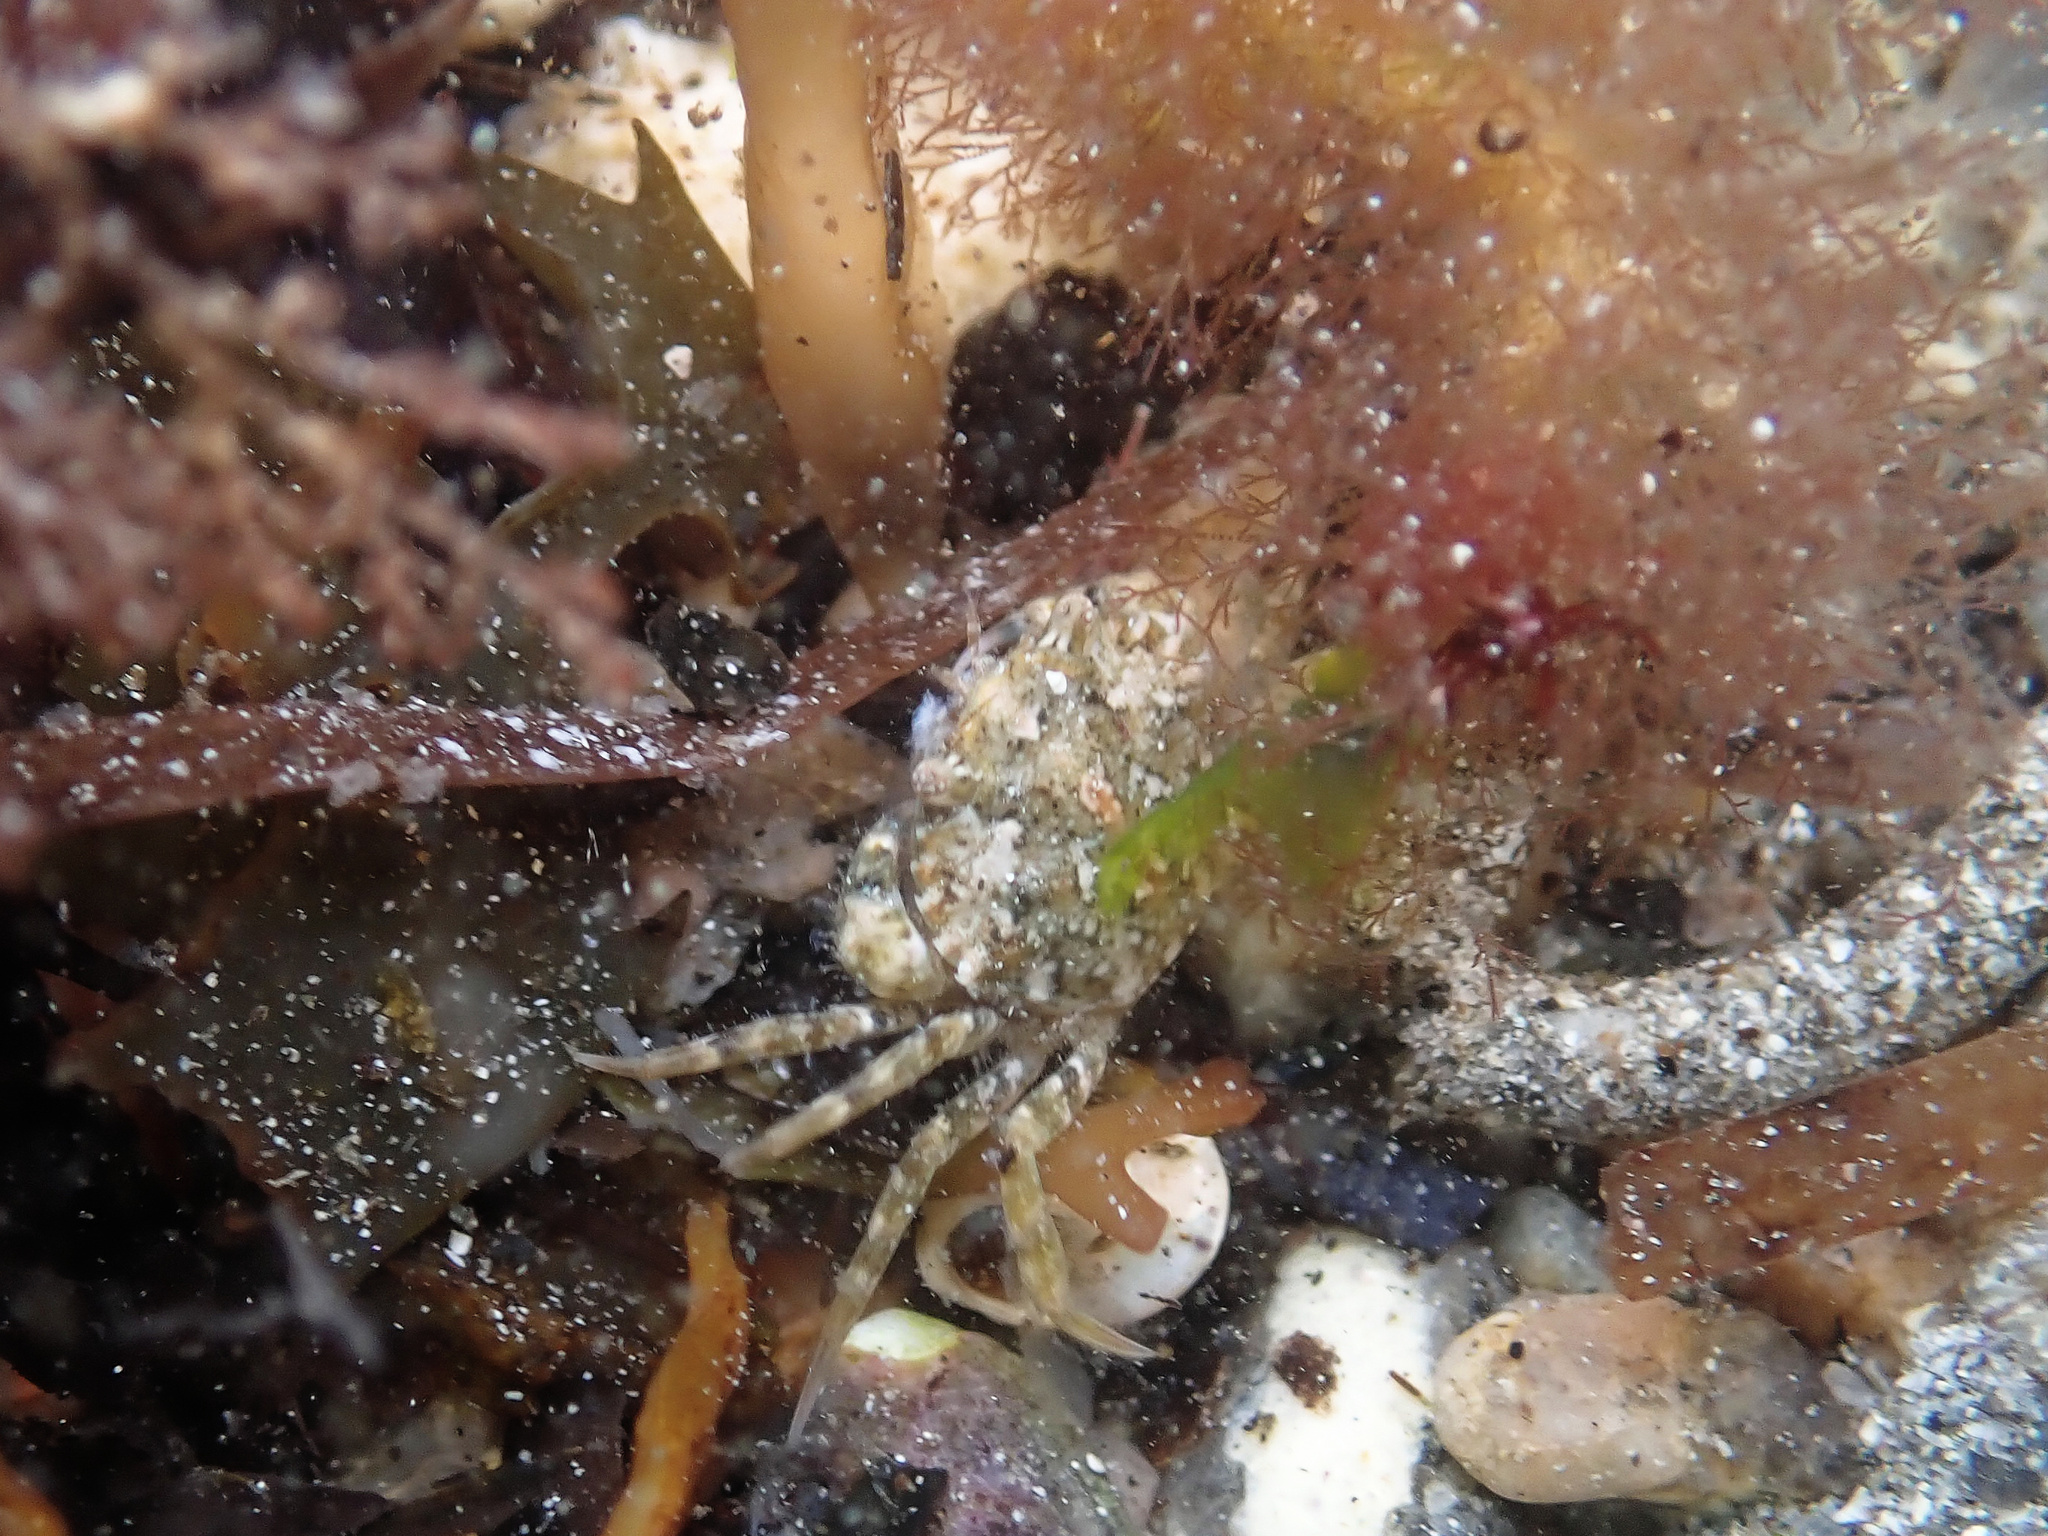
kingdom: Animalia
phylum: Arthropoda
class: Malacostraca
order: Decapoda
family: Carcinidae
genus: Carcinus
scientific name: Carcinus maenas
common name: European green crab
